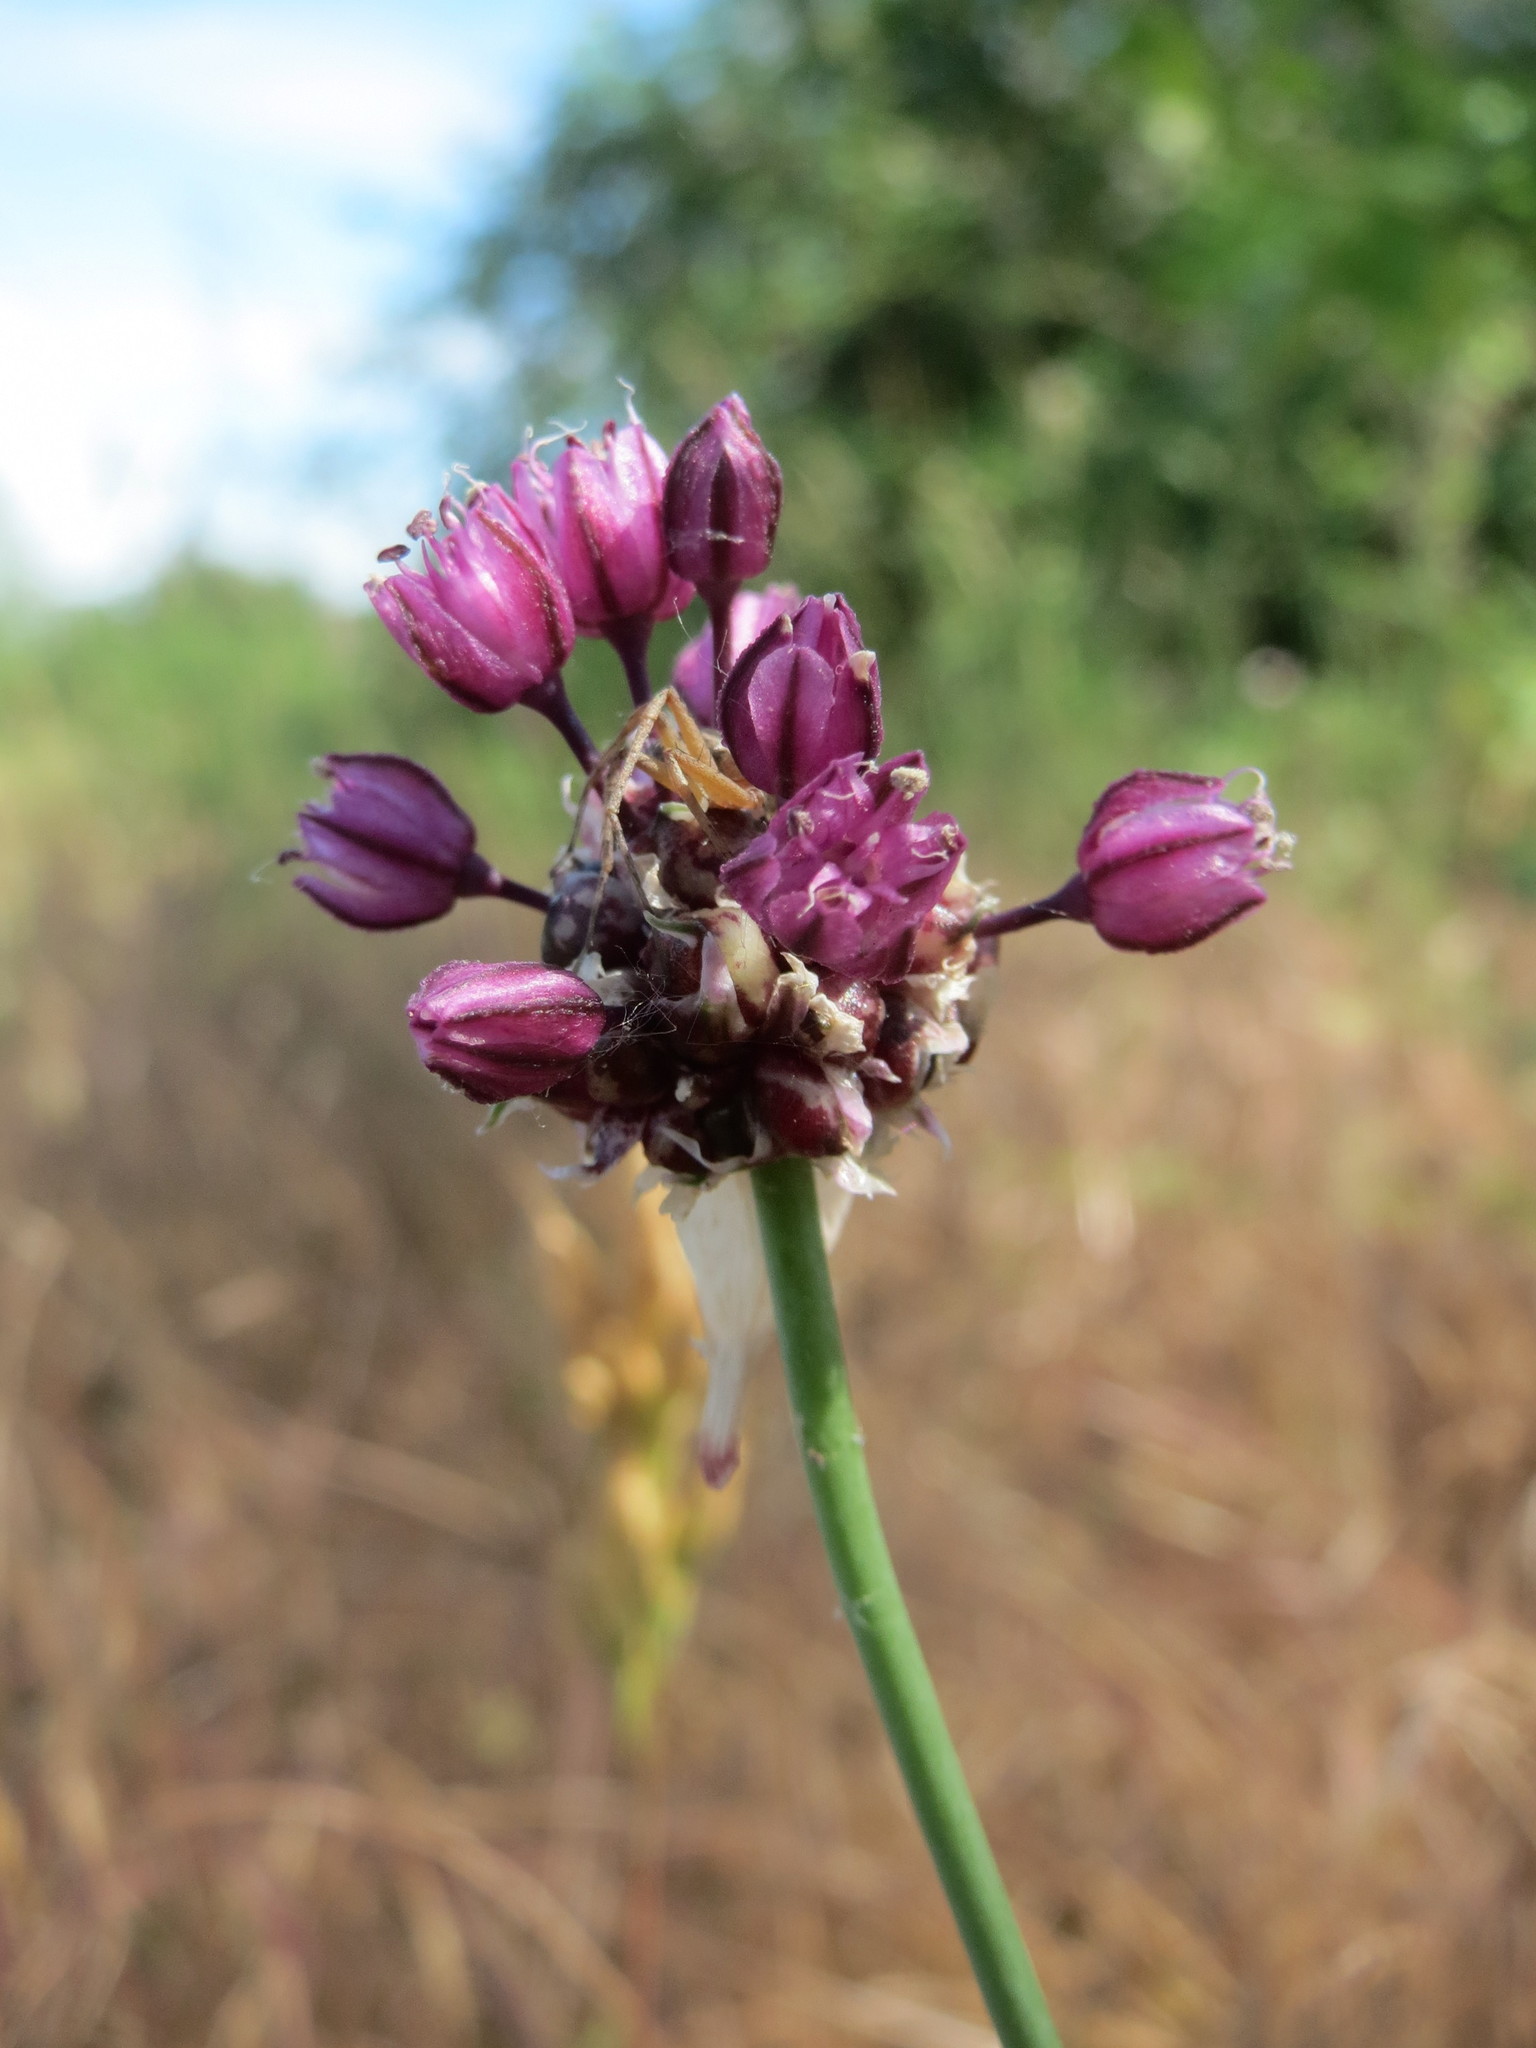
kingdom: Plantae
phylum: Tracheophyta
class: Liliopsida
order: Asparagales
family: Amaryllidaceae
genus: Allium
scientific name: Allium vineale
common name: Crow garlic
